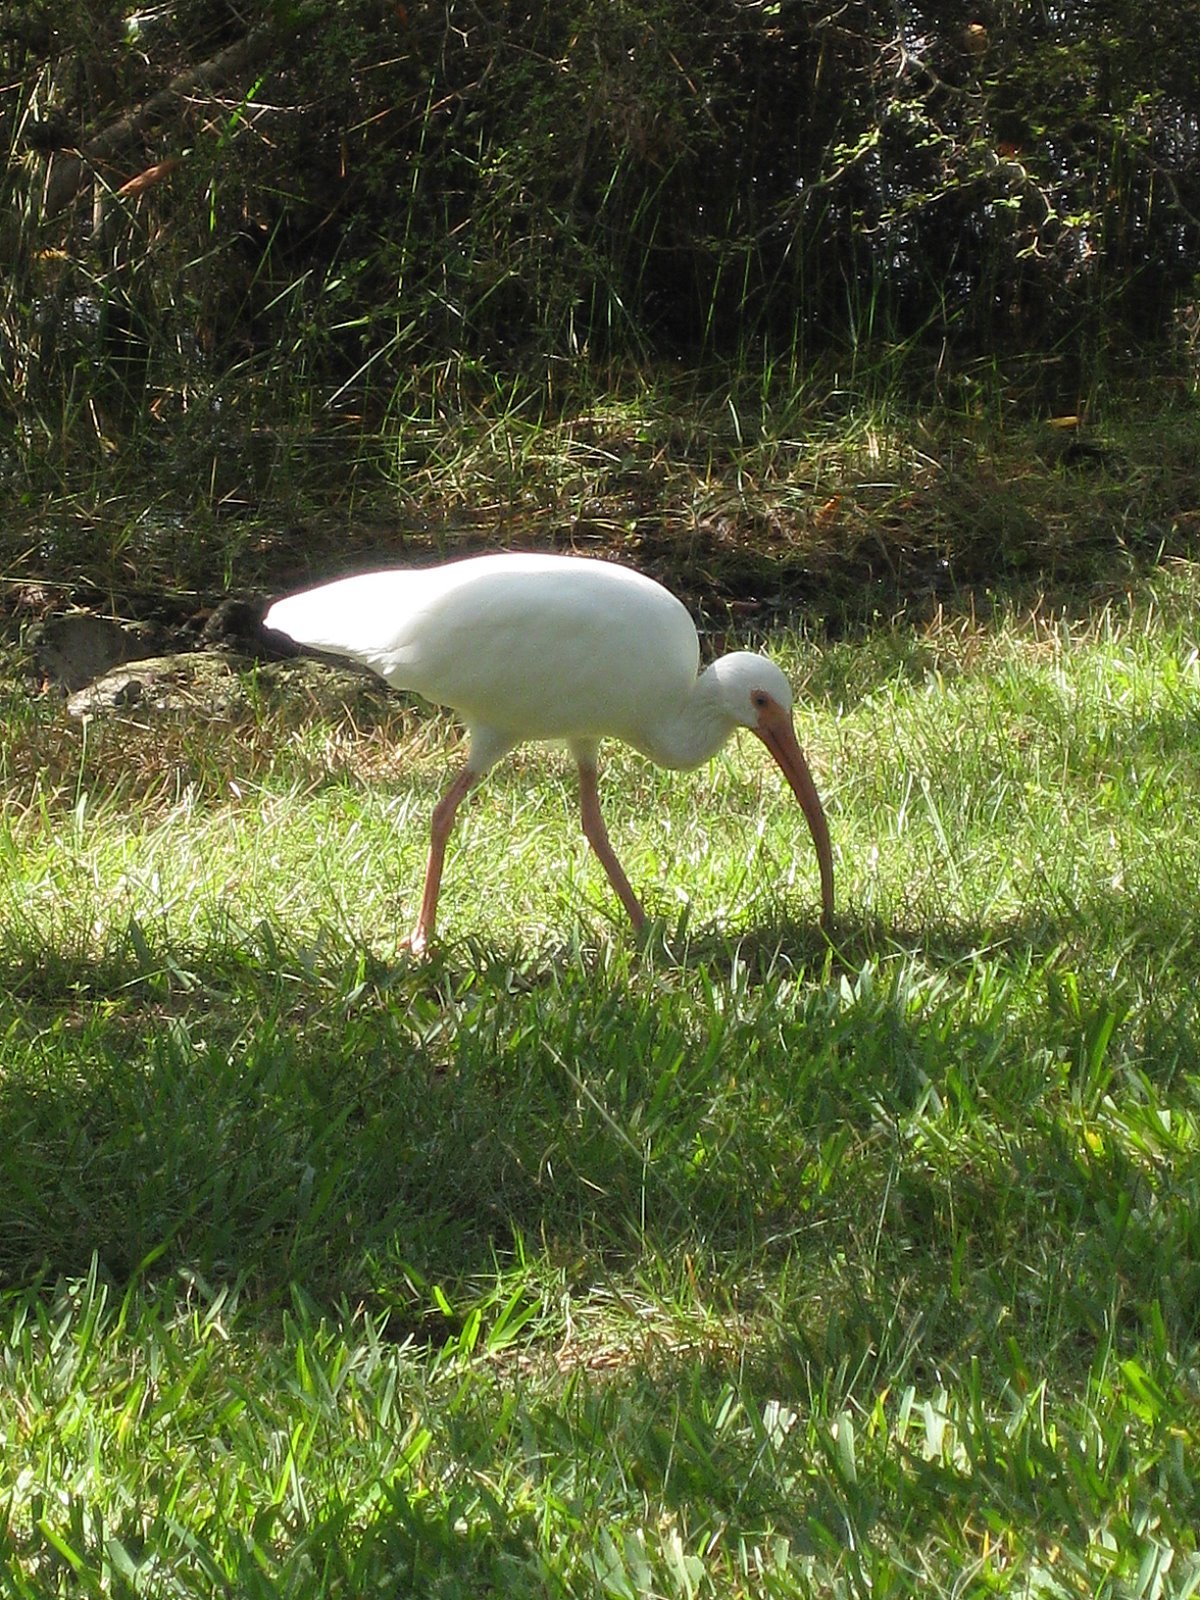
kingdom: Animalia
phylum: Chordata
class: Aves
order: Pelecaniformes
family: Threskiornithidae
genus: Eudocimus
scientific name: Eudocimus albus
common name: White ibis
